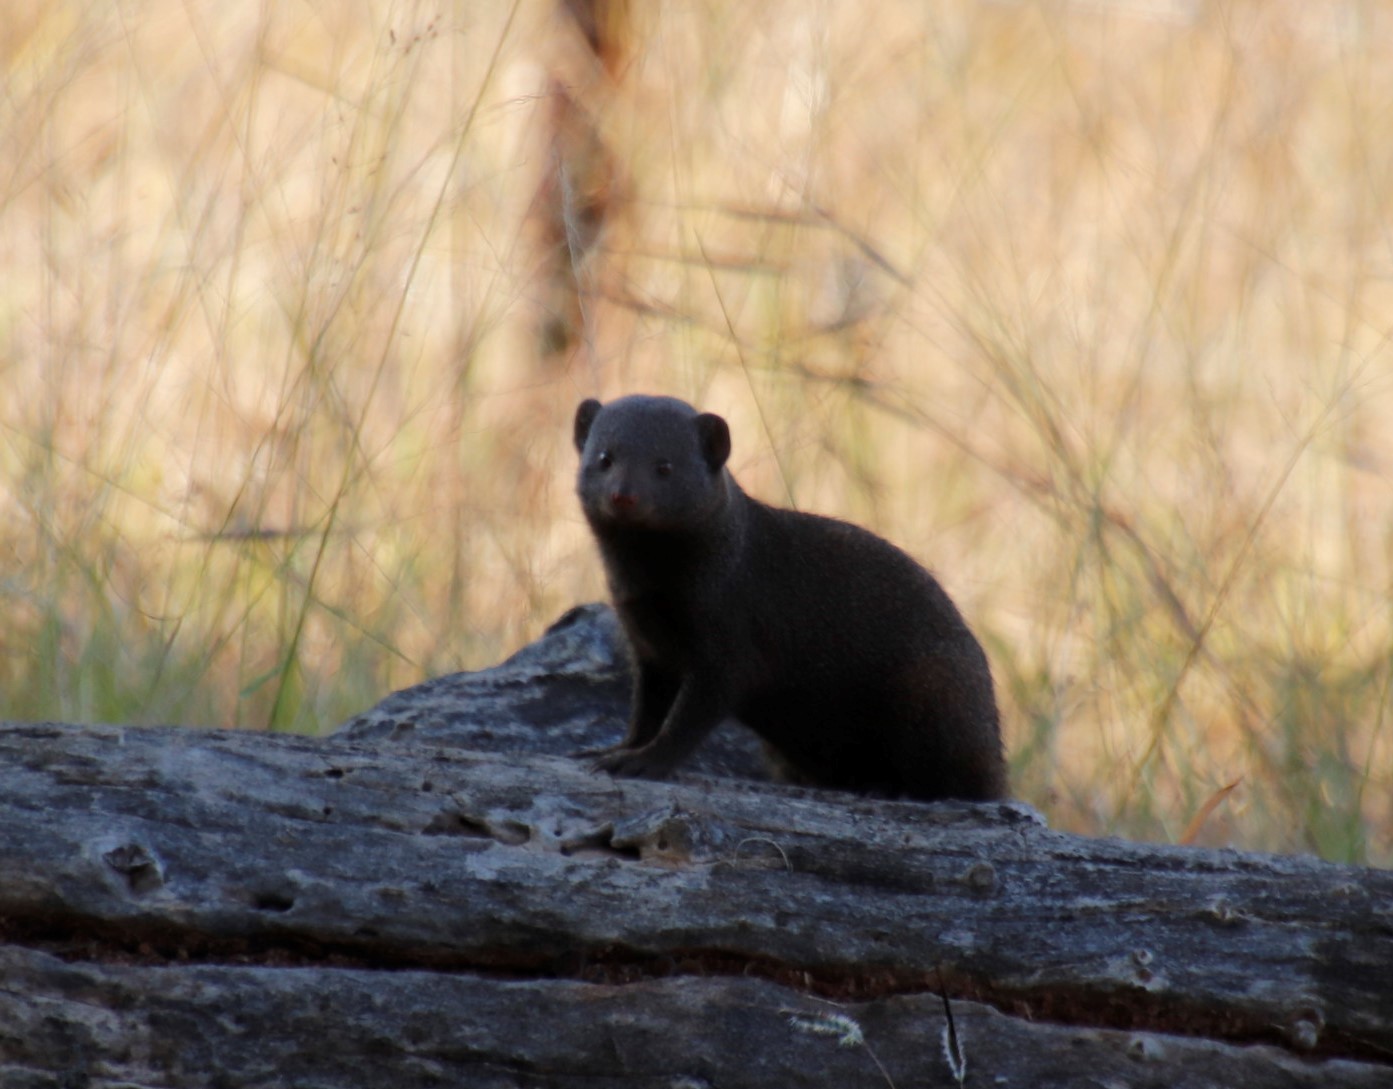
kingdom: Animalia
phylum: Chordata
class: Mammalia
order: Carnivora
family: Herpestidae
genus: Helogale
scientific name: Helogale parvula
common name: Common dwarf mongoose
